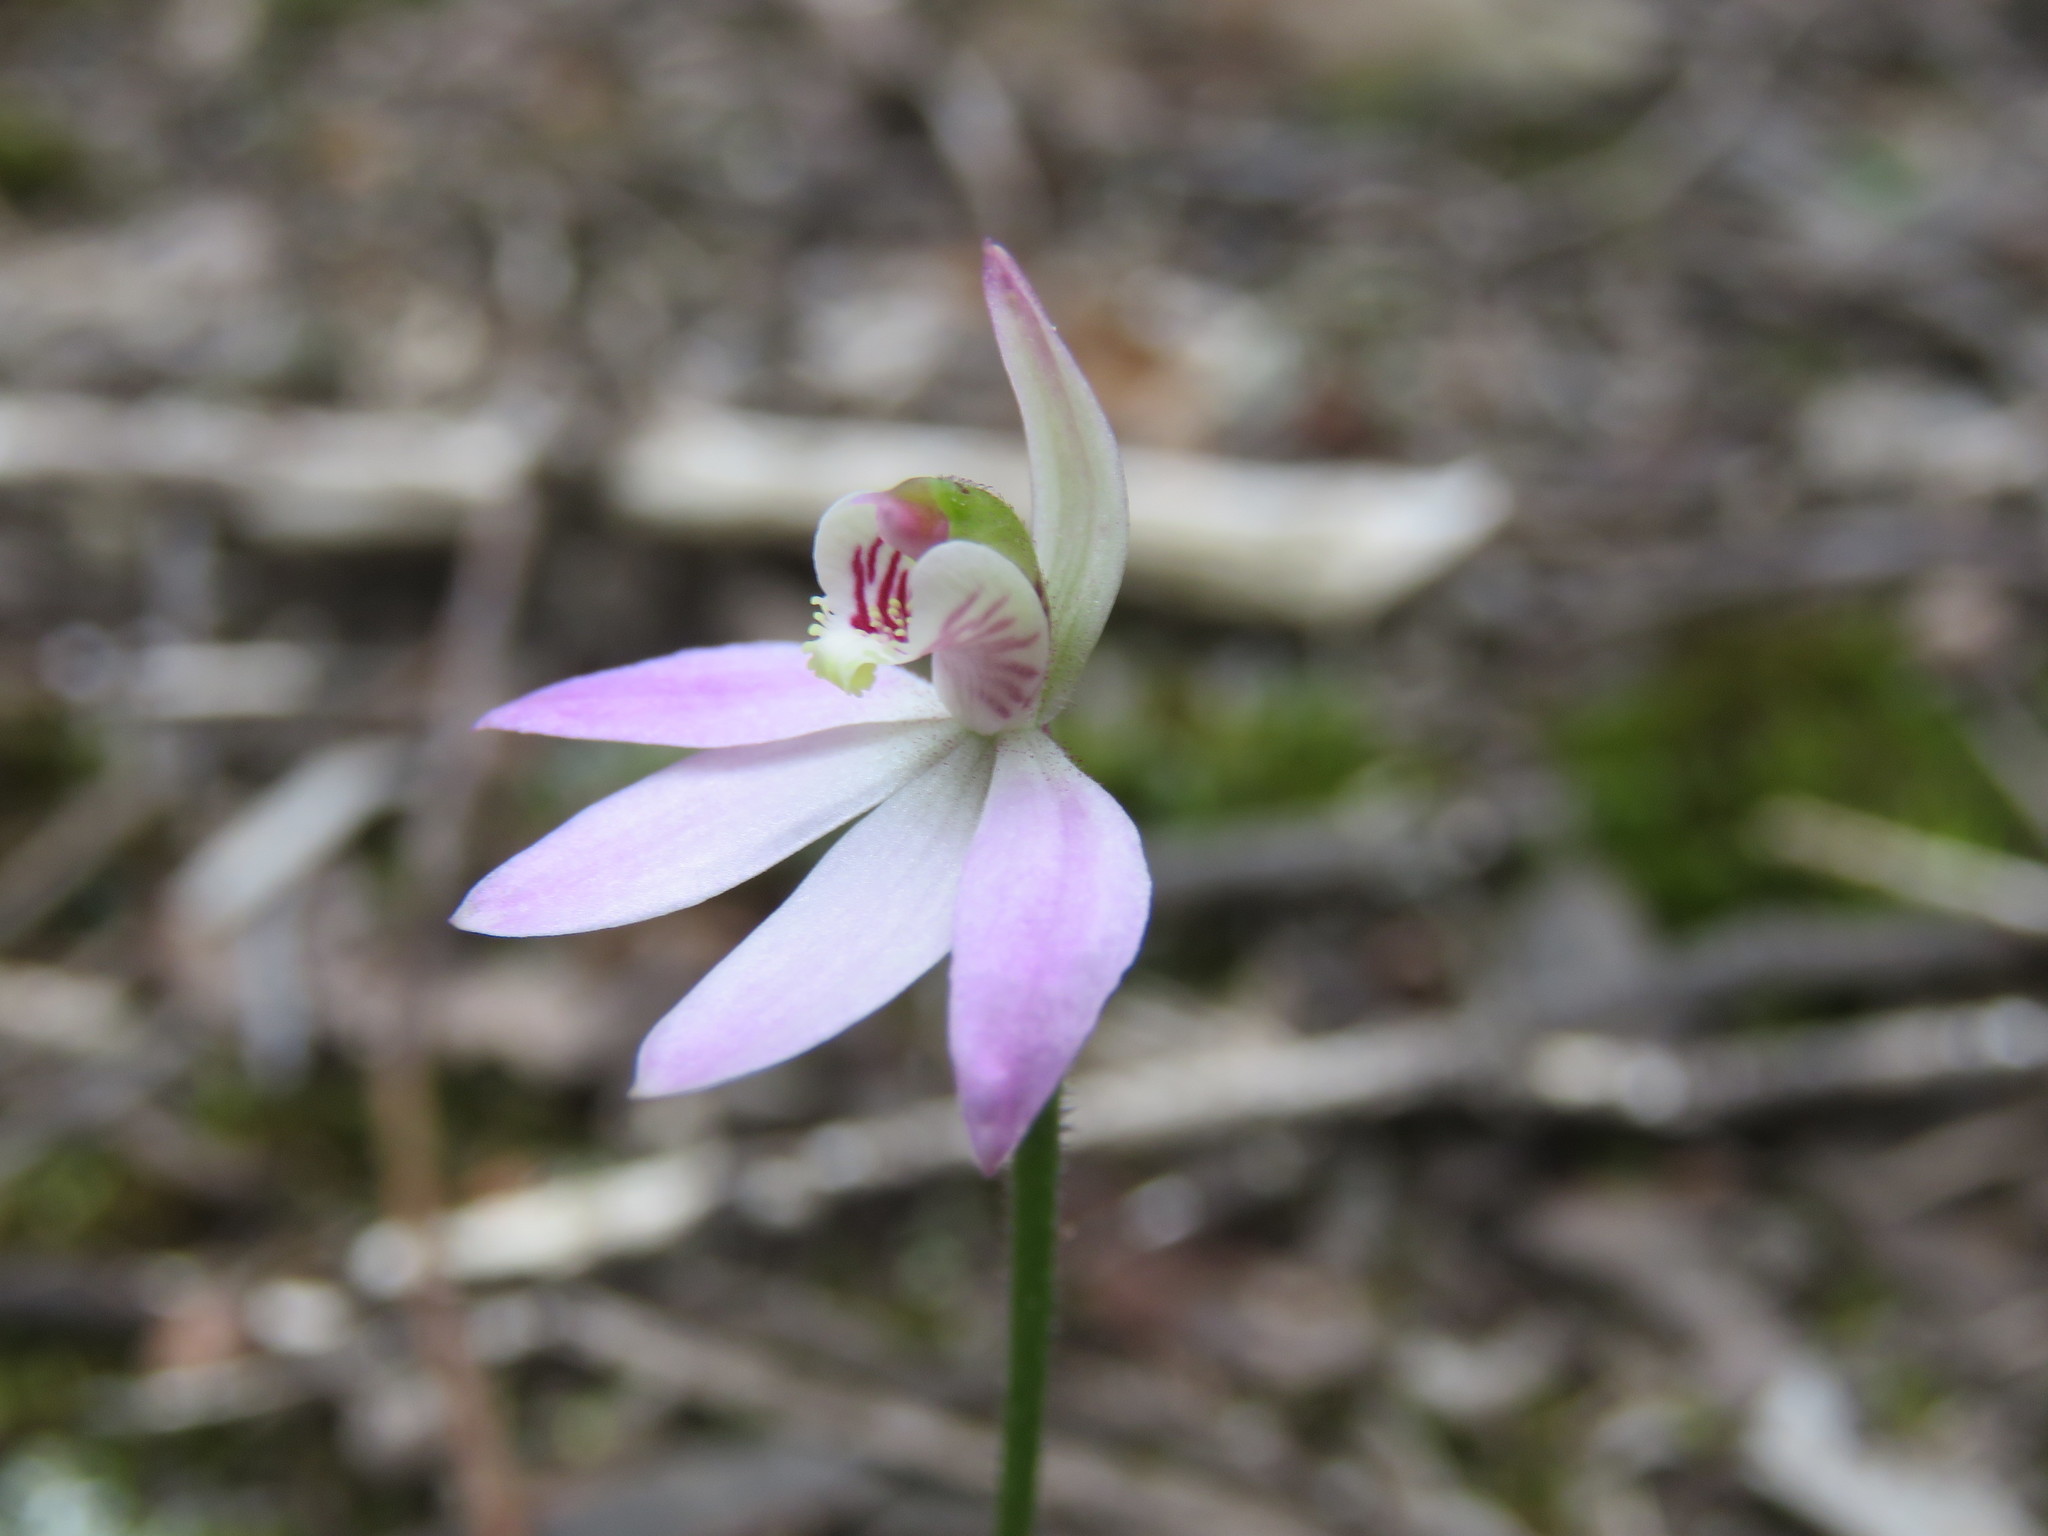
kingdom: Plantae
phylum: Tracheophyta
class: Liliopsida
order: Asparagales
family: Orchidaceae
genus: Caladenia
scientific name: Caladenia carnea
